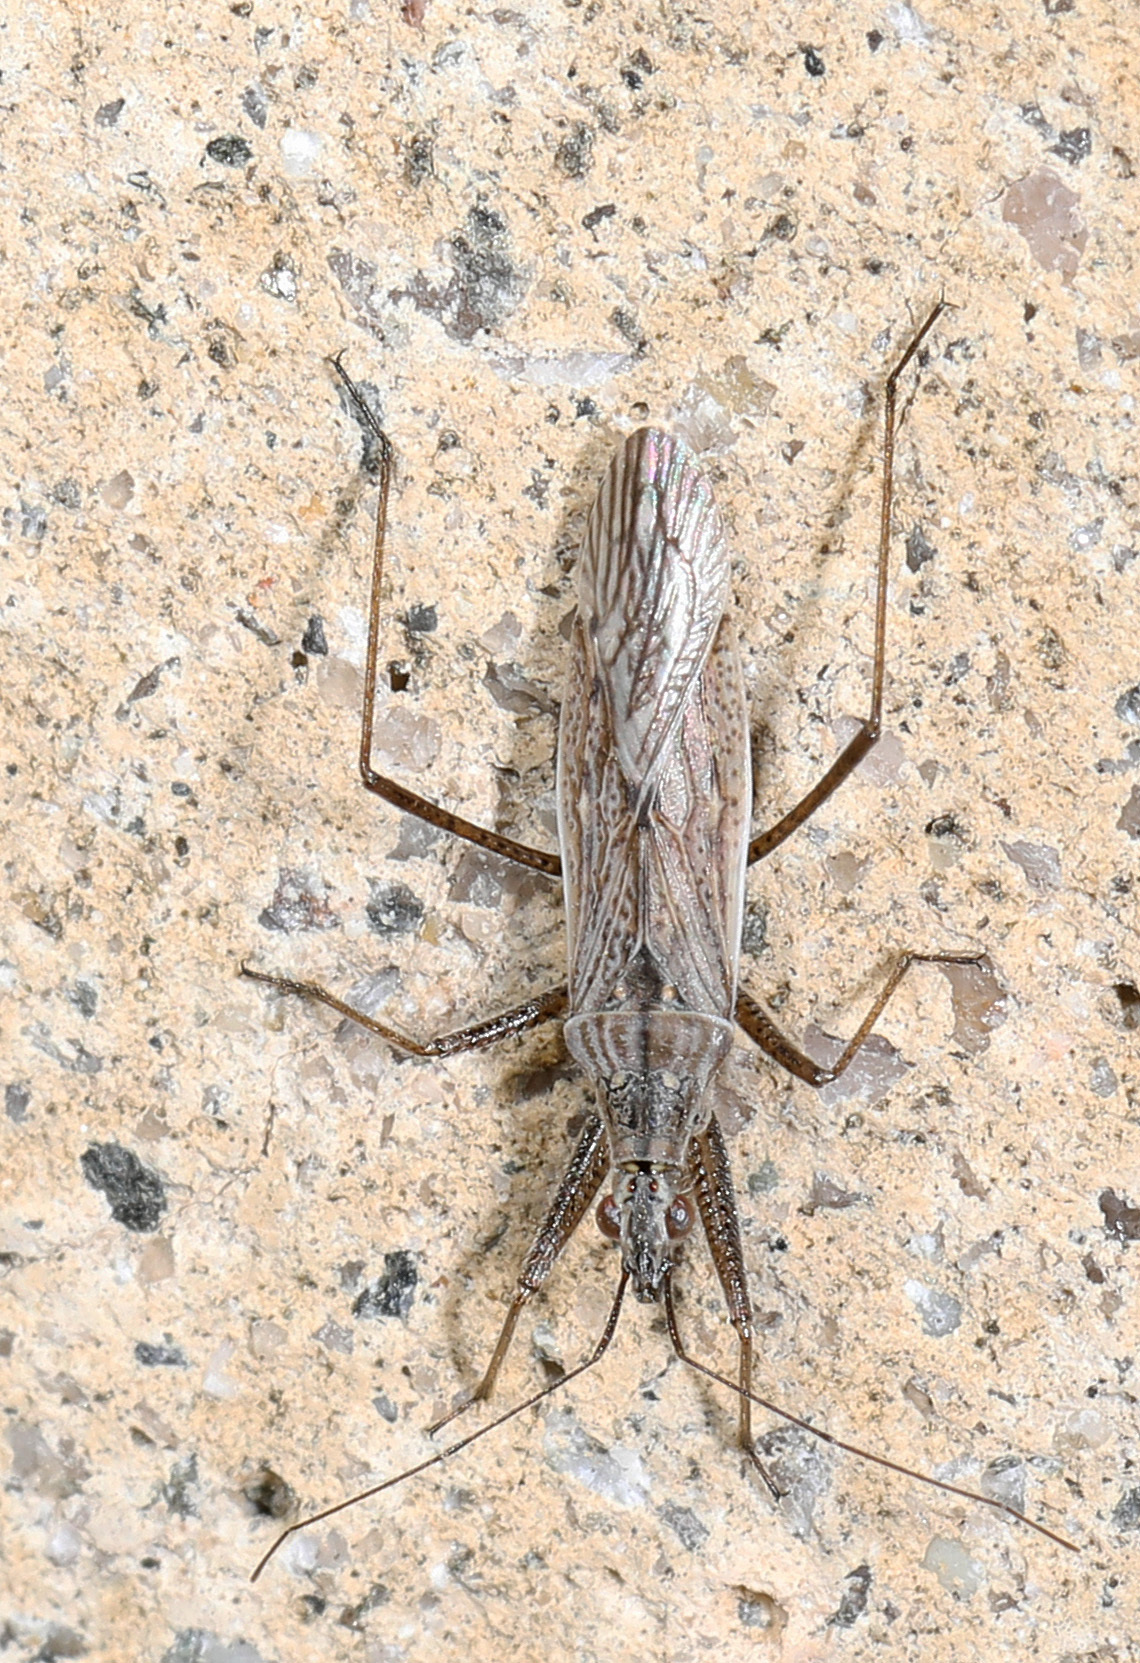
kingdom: Animalia
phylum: Arthropoda
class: Insecta
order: Hemiptera
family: Nabidae
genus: Nabis
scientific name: Nabis americoferus
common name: Common damsel bug
